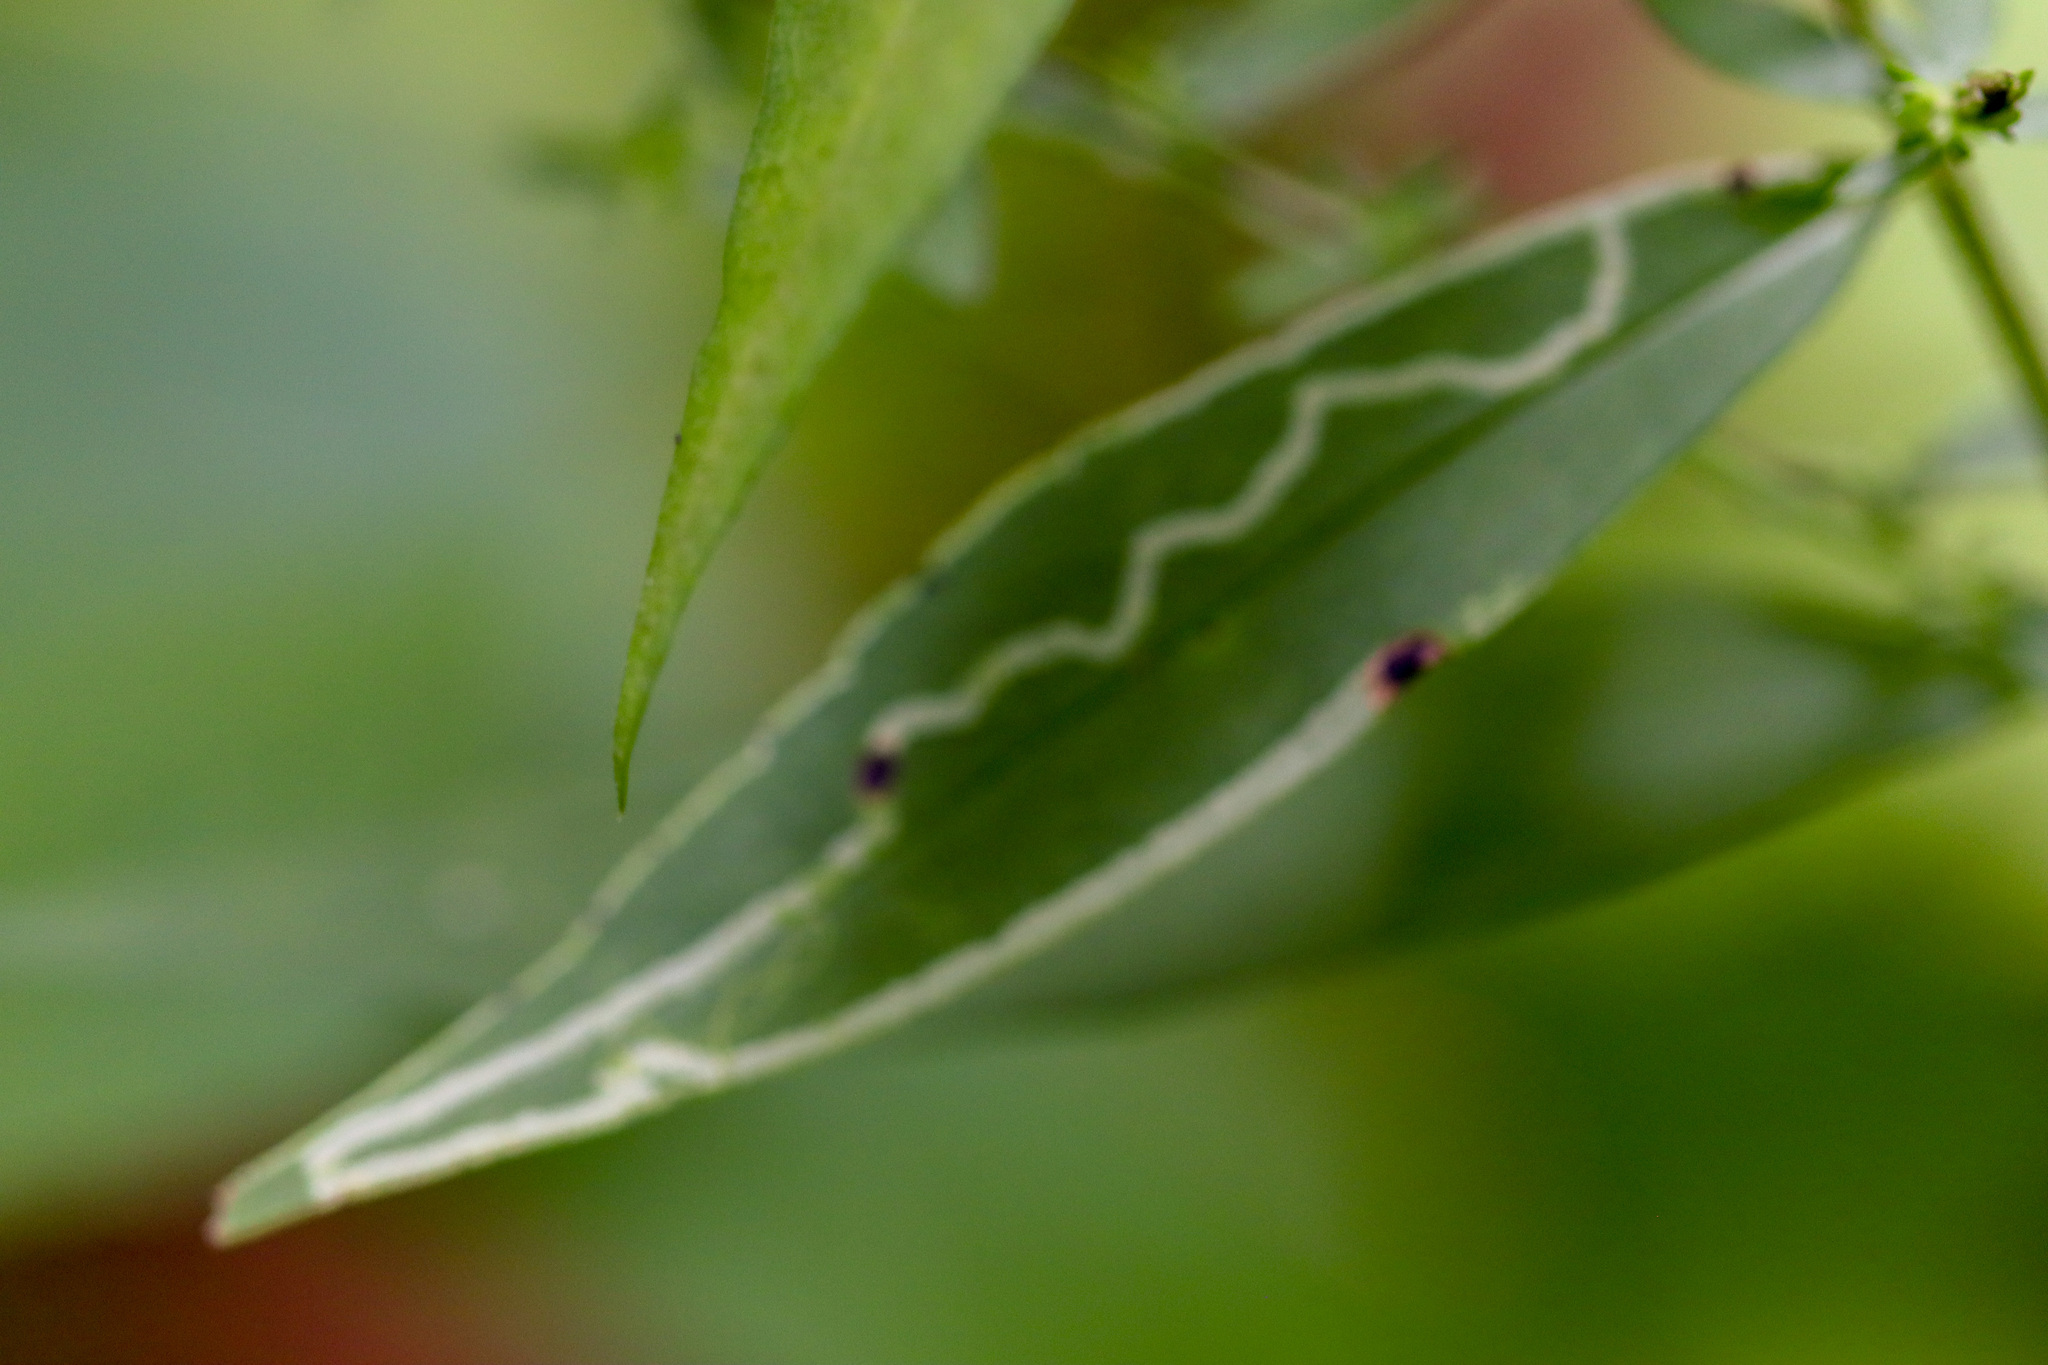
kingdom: Animalia
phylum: Arthropoda
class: Insecta
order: Diptera
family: Agromyzidae
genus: Ophiomyia
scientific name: Ophiomyia parda
